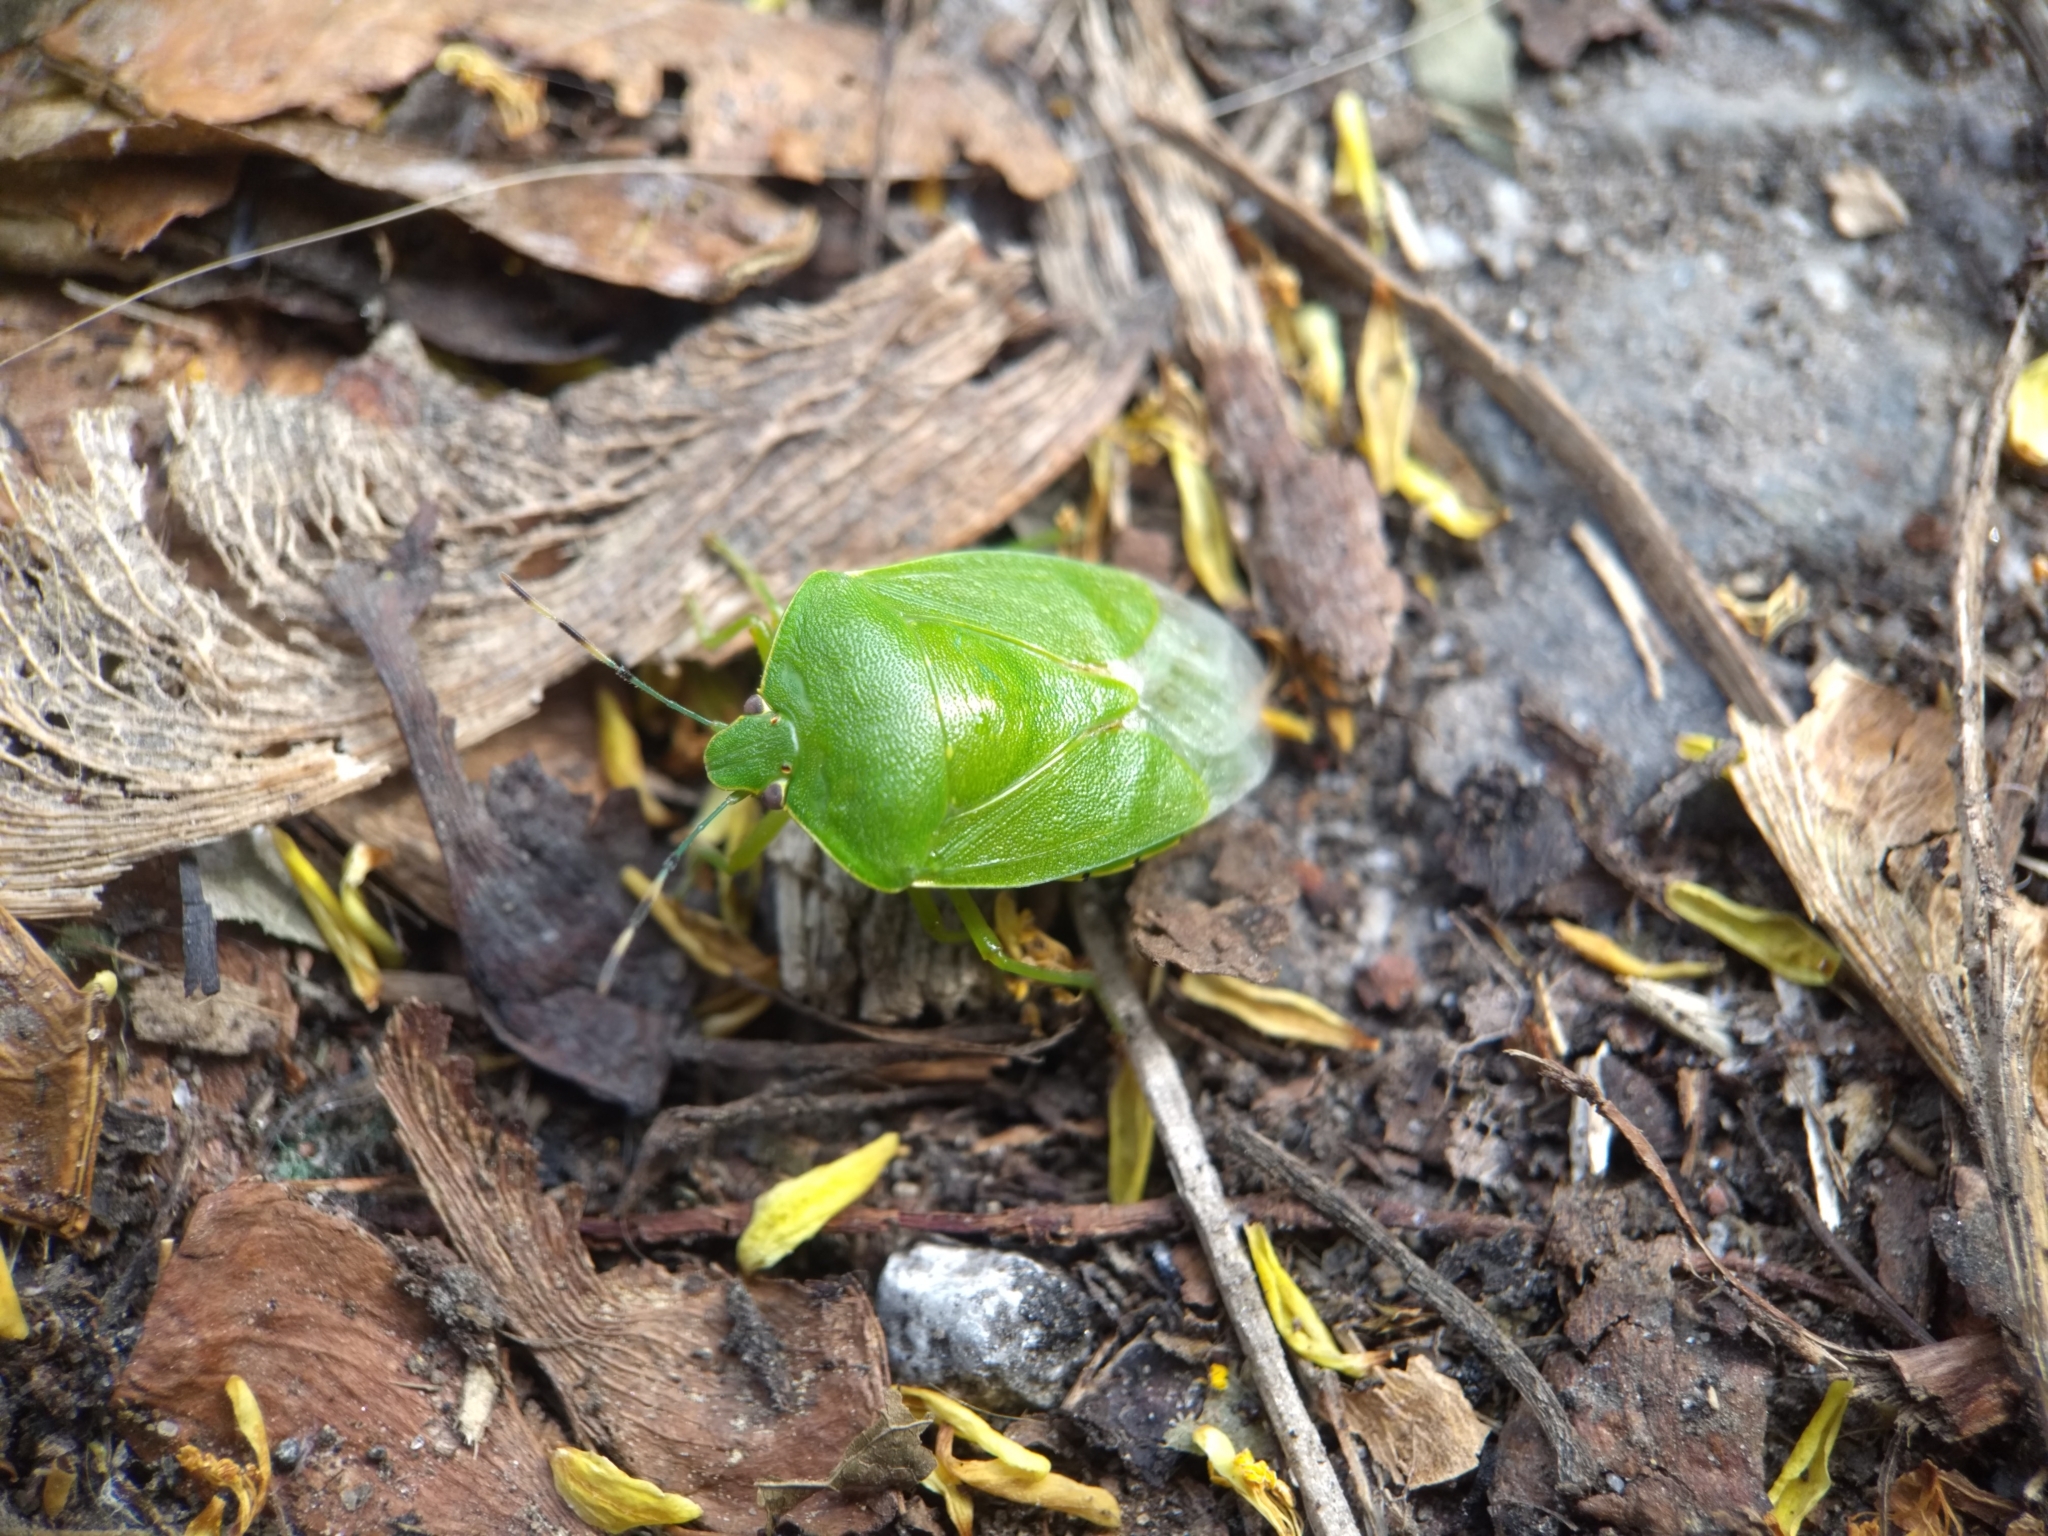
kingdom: Animalia
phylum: Arthropoda
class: Insecta
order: Hemiptera
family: Pentatomidae
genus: Chinavia
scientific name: Chinavia hilaris
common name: Green stink bug
